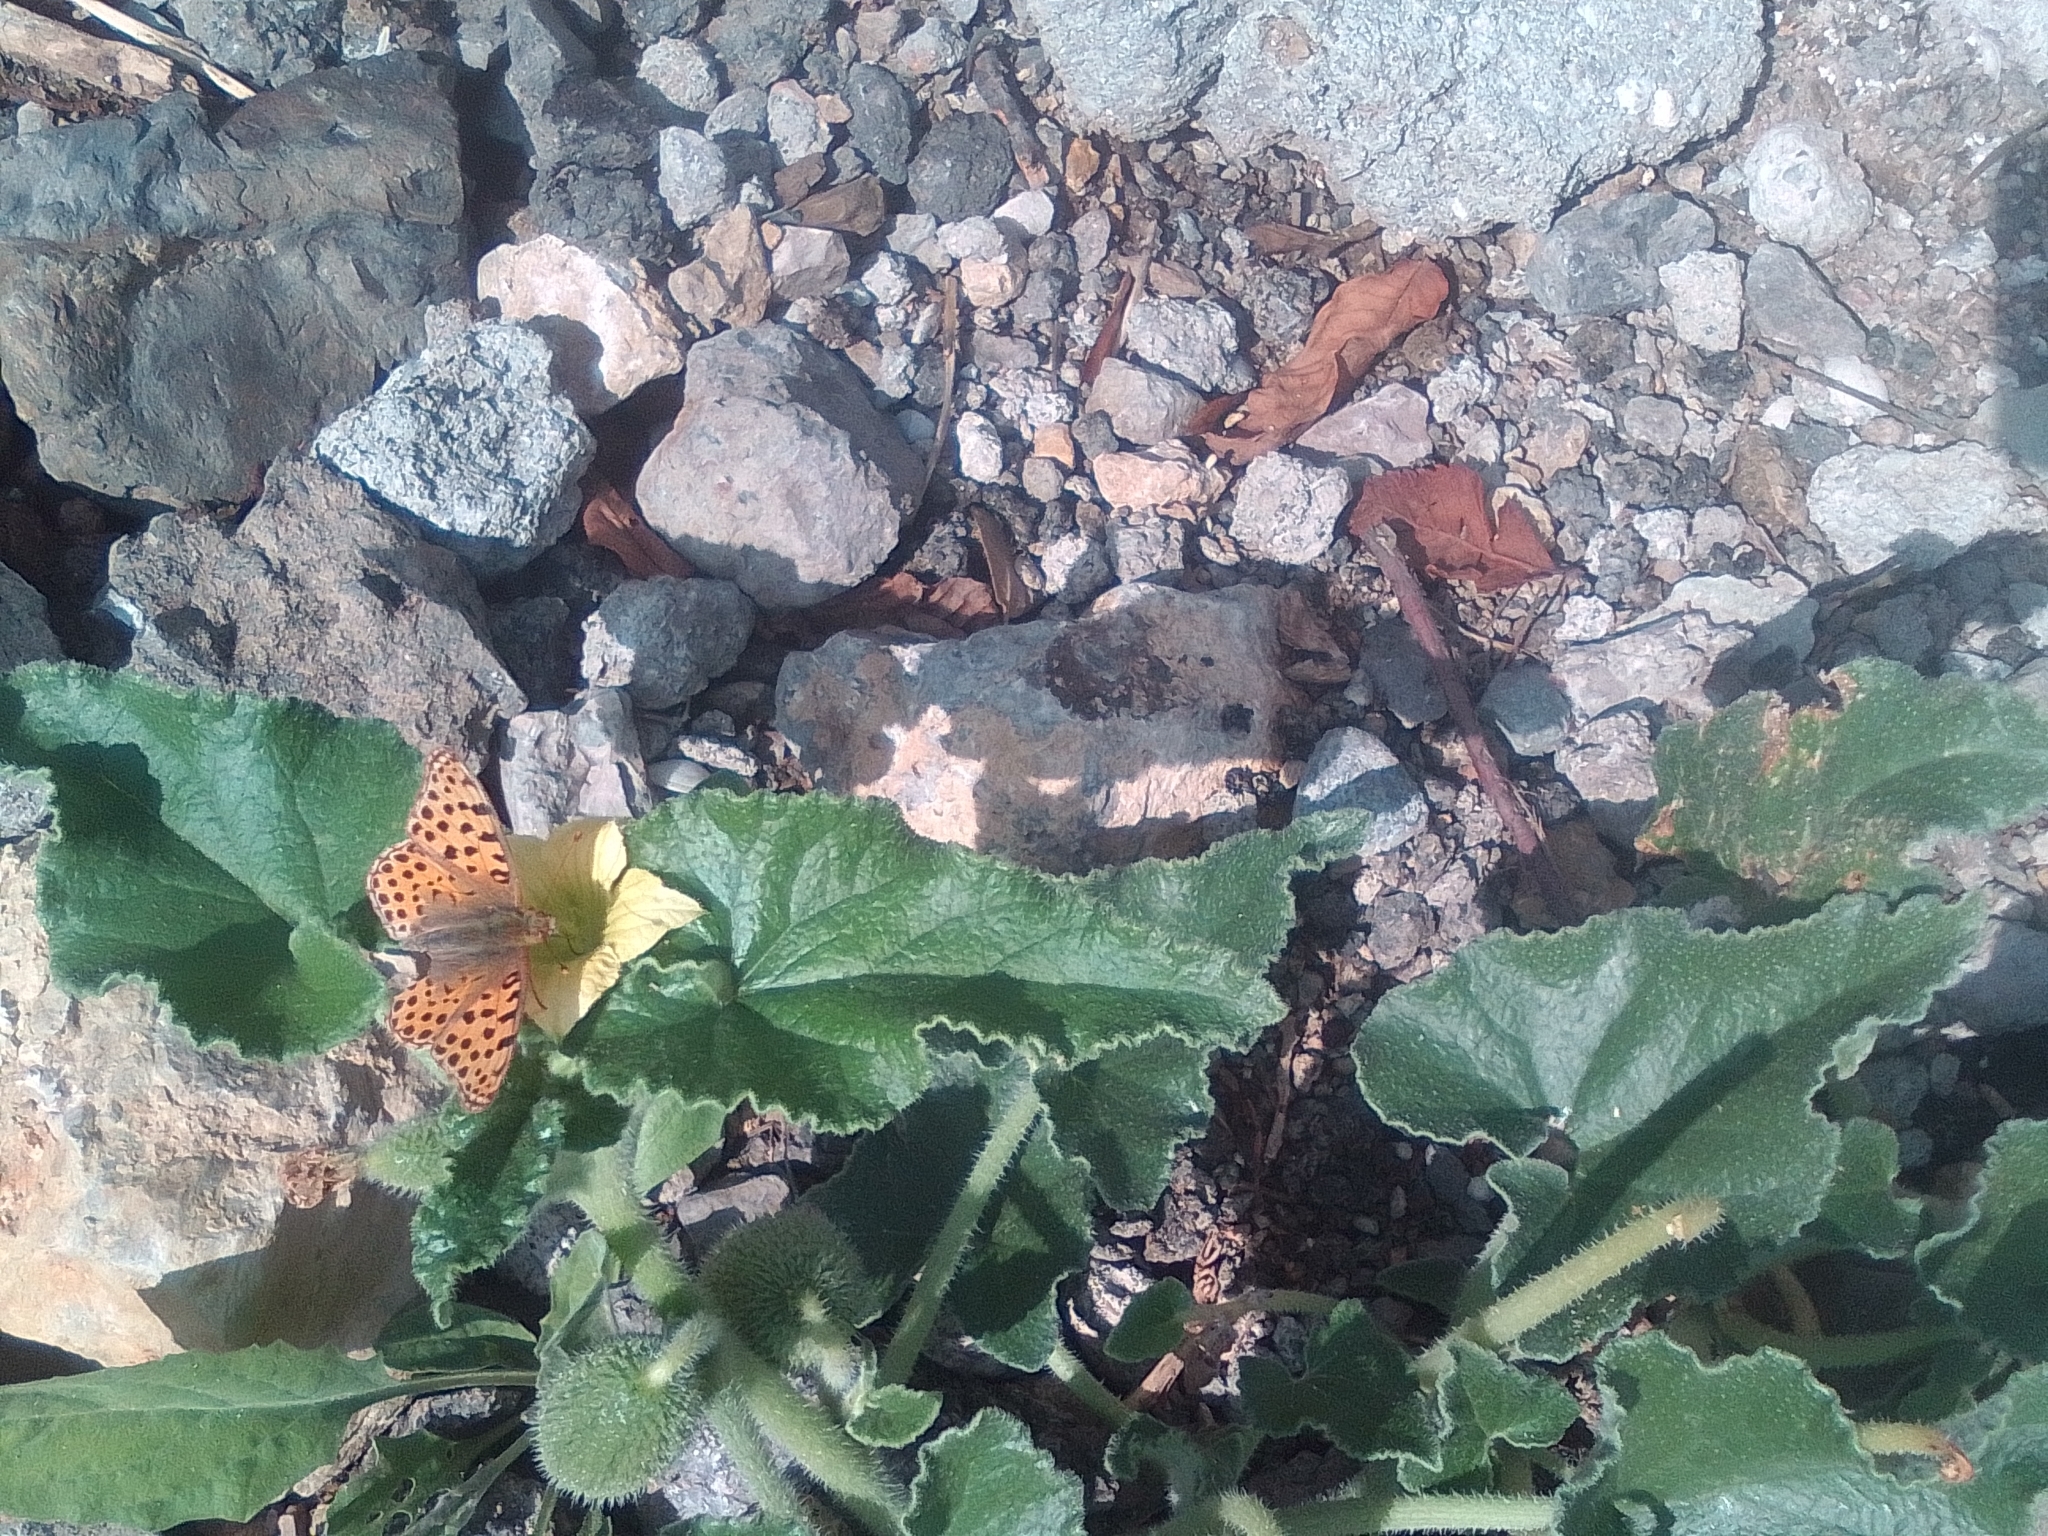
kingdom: Plantae
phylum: Tracheophyta
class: Magnoliopsida
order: Cucurbitales
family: Cucurbitaceae
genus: Ecballium
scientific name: Ecballium elaterium
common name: Squirting cucumber
